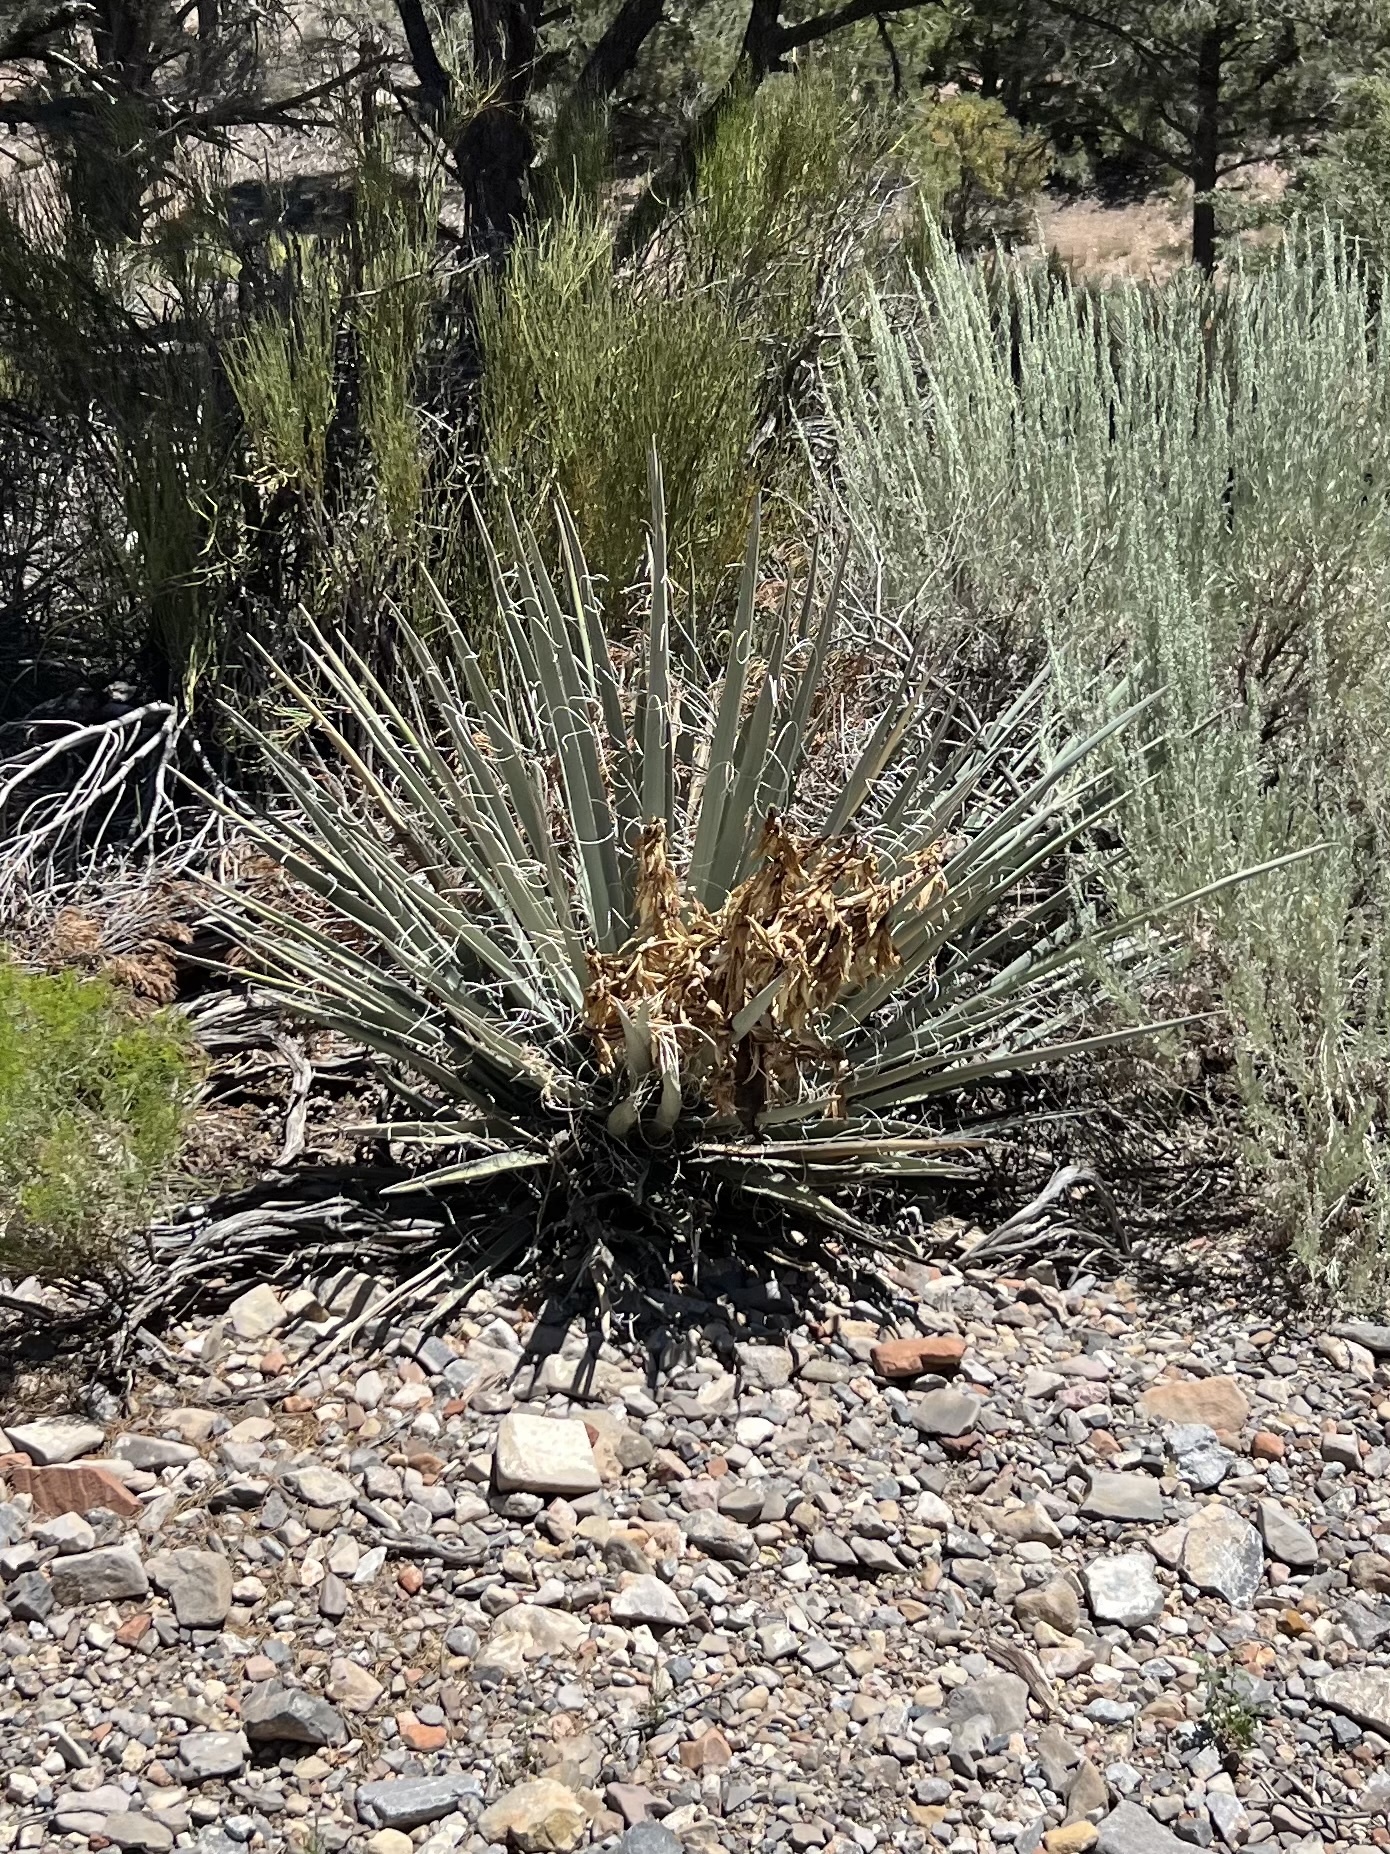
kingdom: Plantae
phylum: Tracheophyta
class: Liliopsida
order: Asparagales
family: Asparagaceae
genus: Yucca
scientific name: Yucca baccata
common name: Banana yucca
